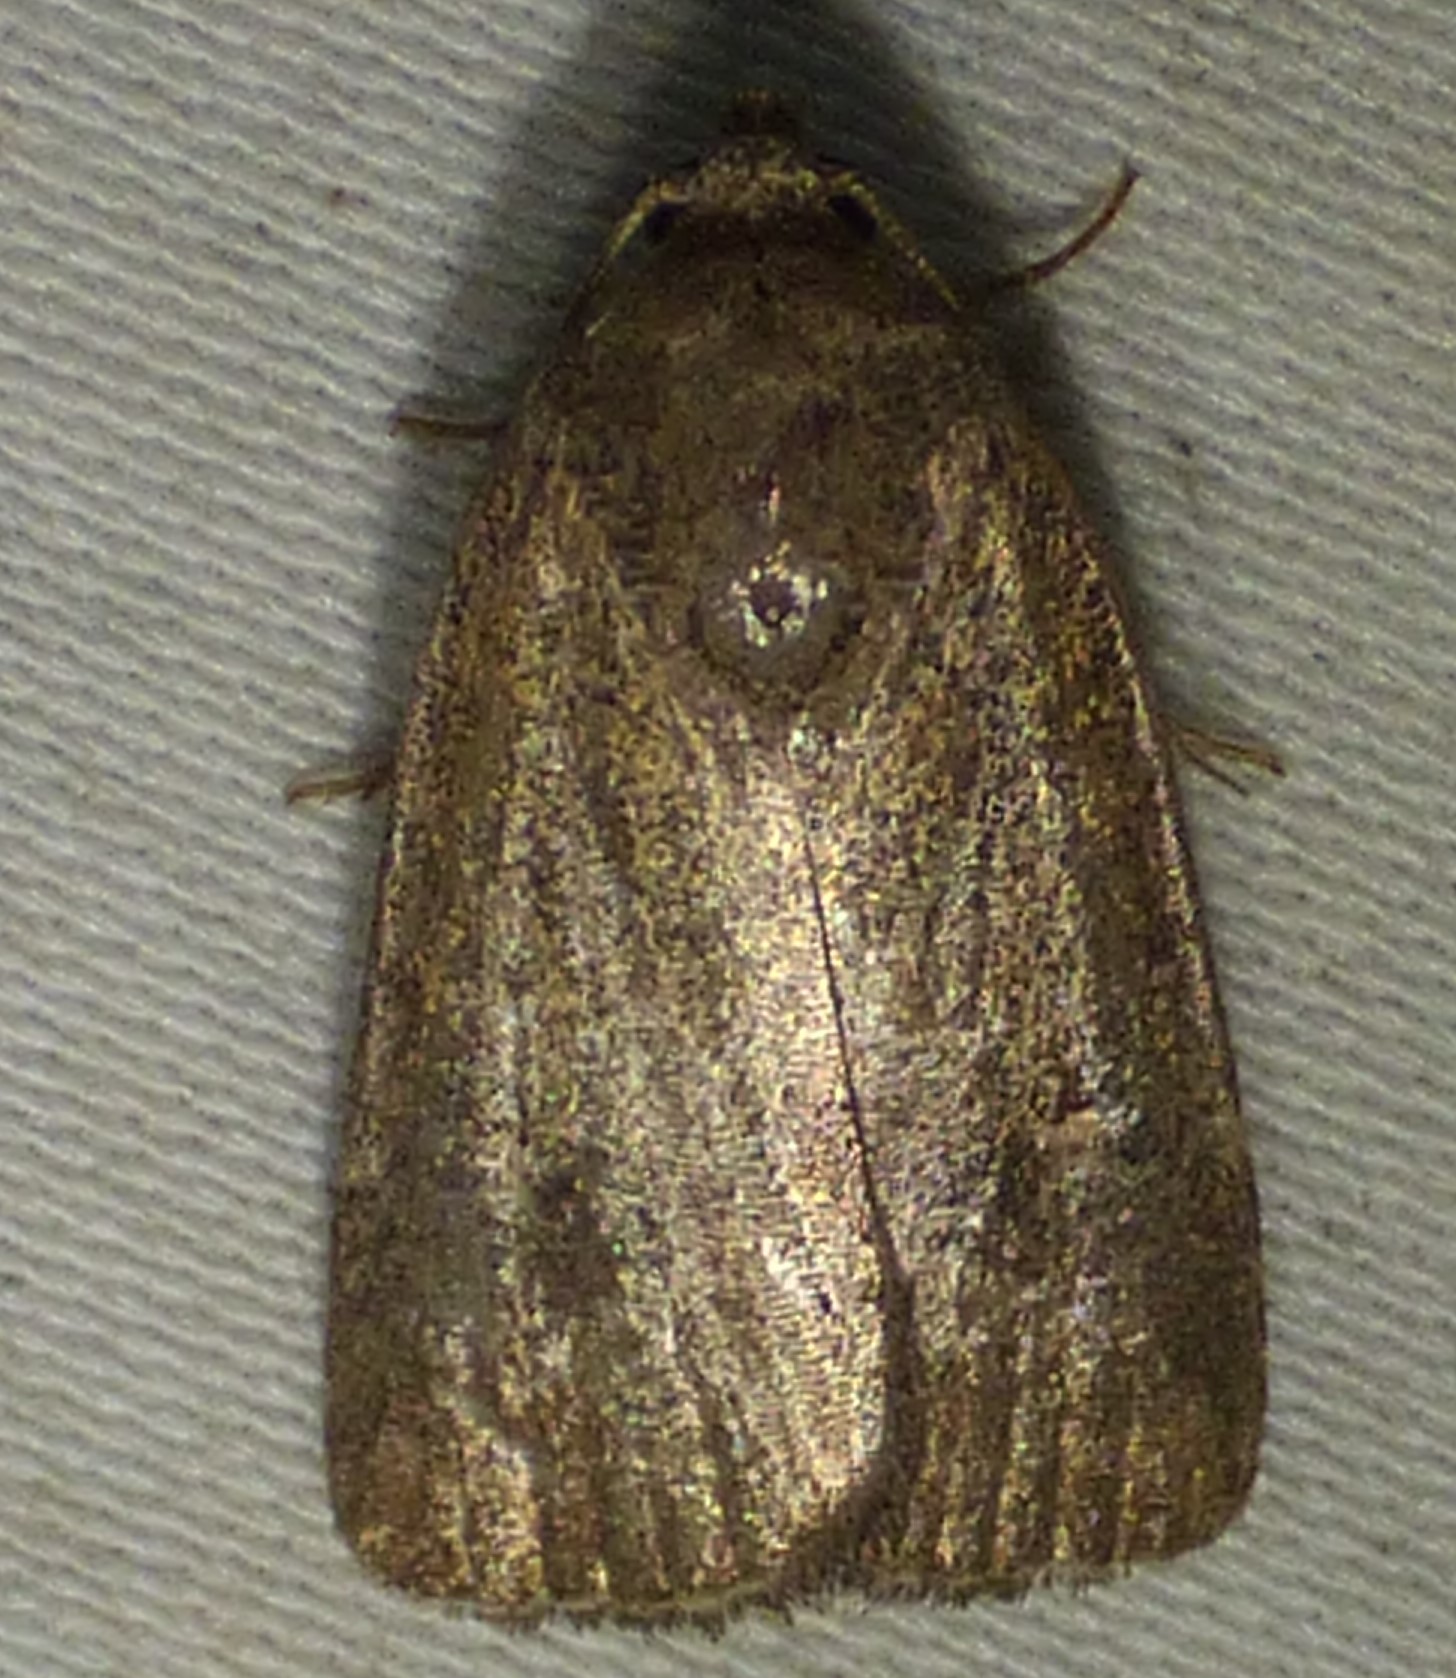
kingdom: Animalia
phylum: Arthropoda
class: Insecta
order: Lepidoptera
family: Noctuidae
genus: Elaphria
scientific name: Elaphria grata
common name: Grateful midget moth
